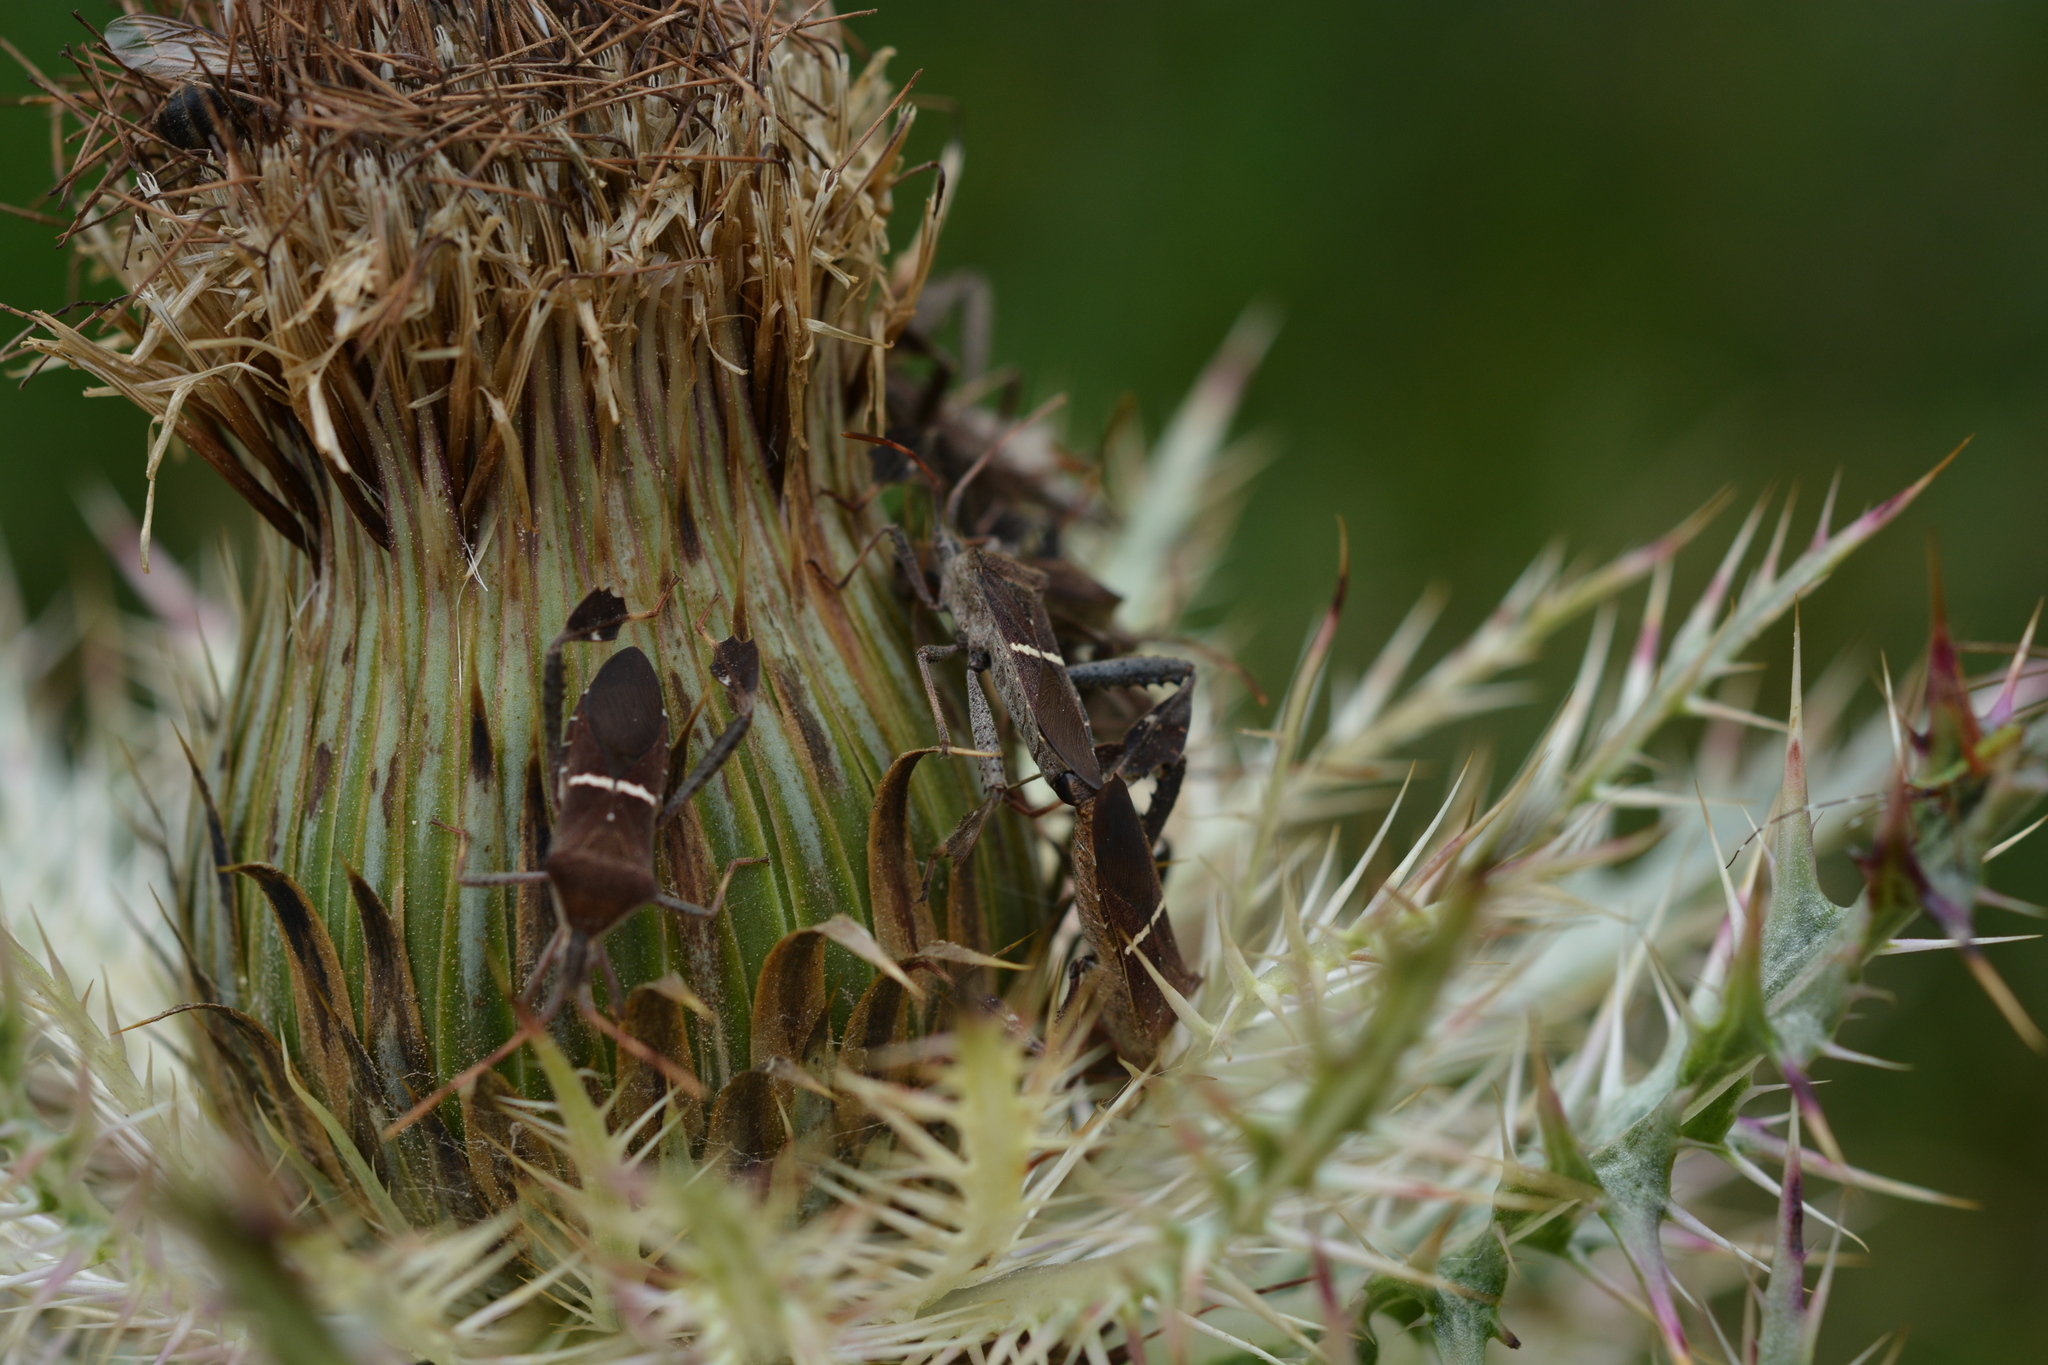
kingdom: Animalia
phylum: Arthropoda
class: Insecta
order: Hemiptera
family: Coreidae
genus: Leptoglossus
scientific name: Leptoglossus phyllopus
